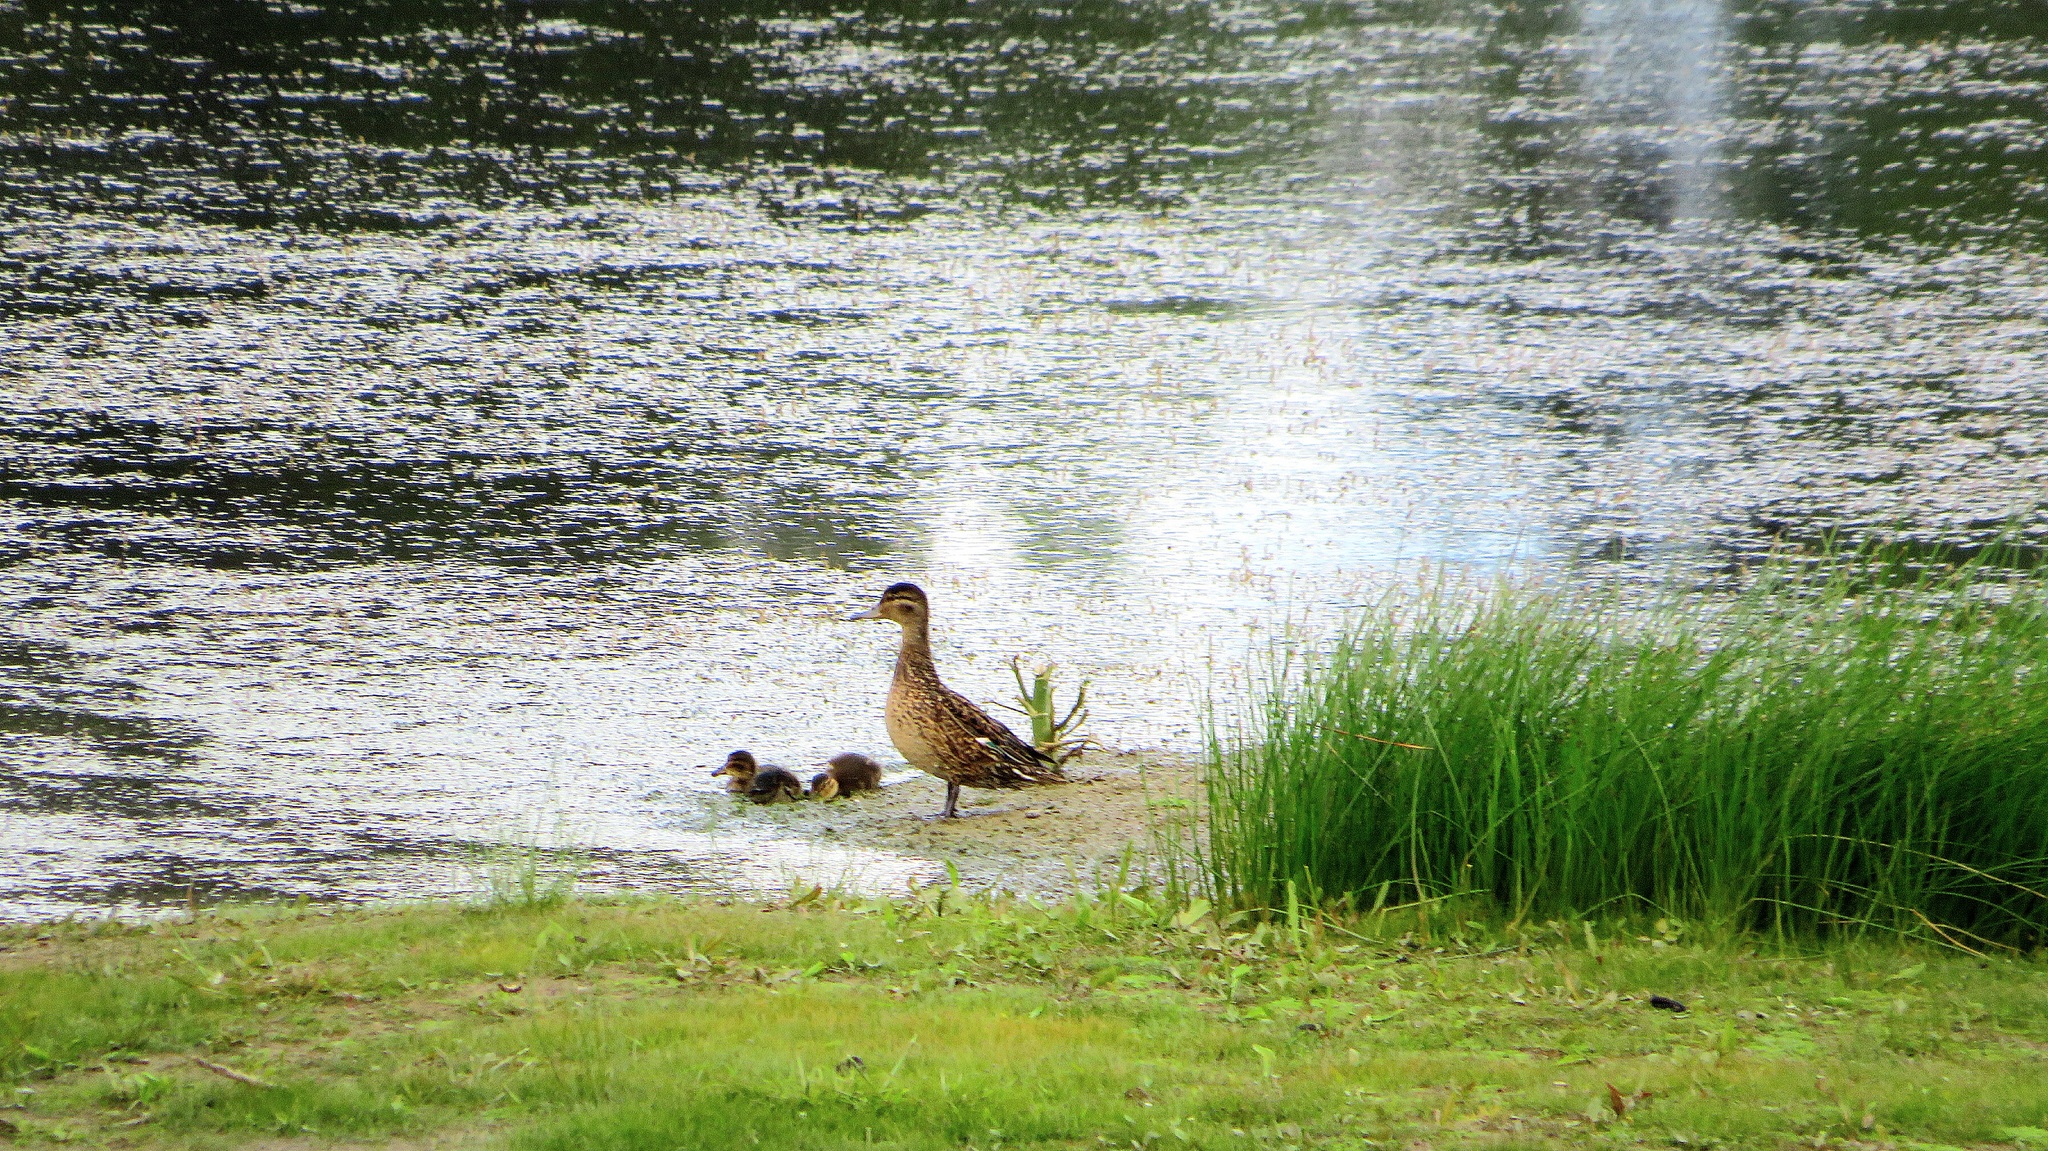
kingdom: Animalia
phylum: Chordata
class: Aves
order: Anseriformes
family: Anatidae
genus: Anas
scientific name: Anas crecca
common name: Eurasian teal
